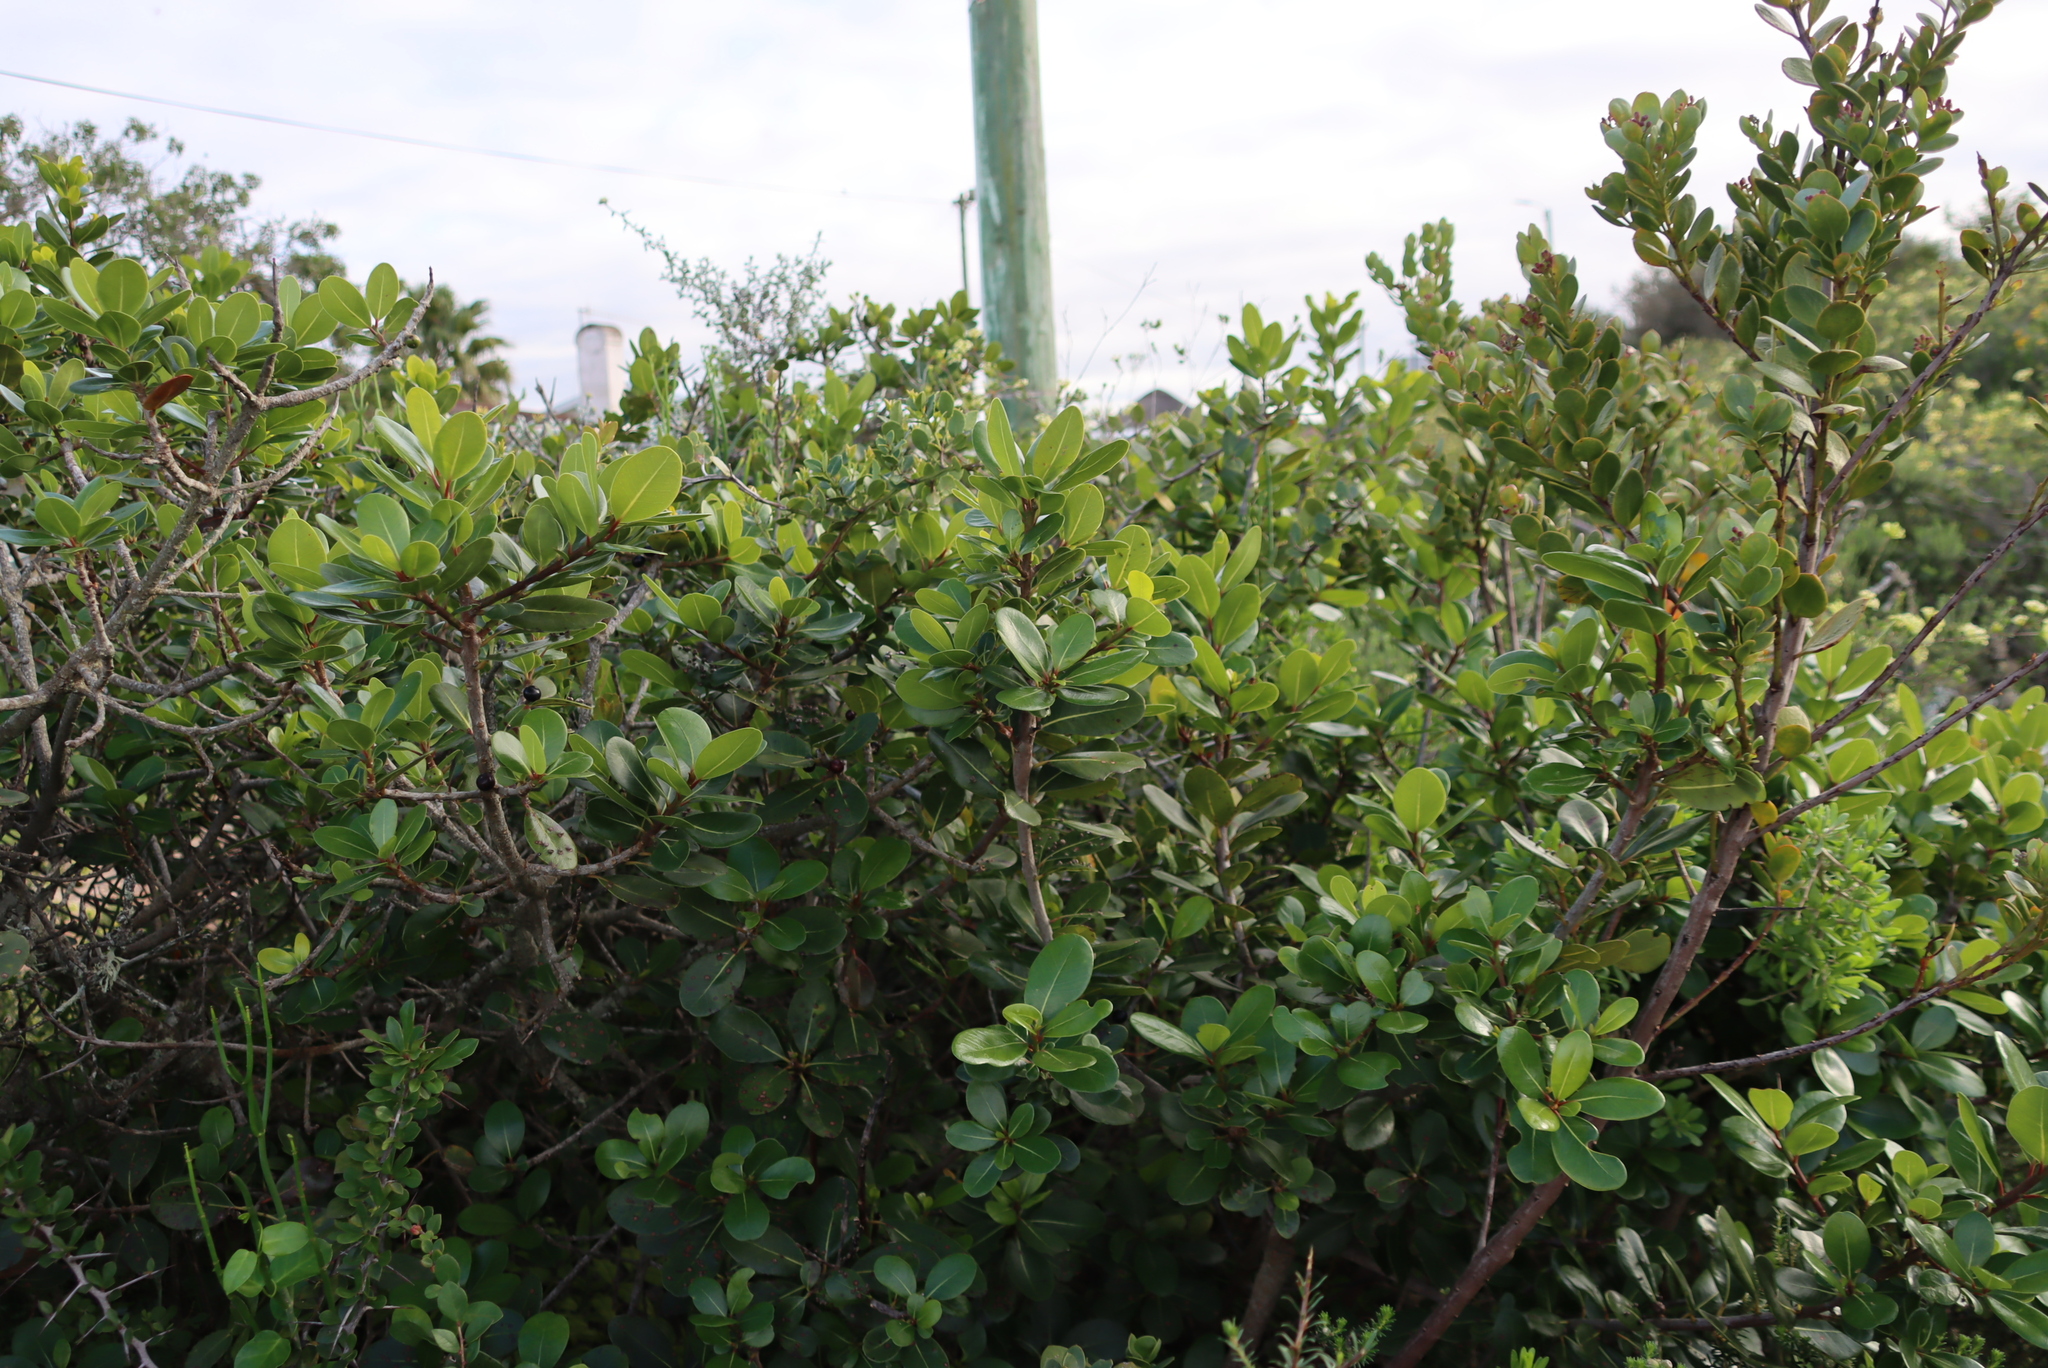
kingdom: Plantae
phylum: Tracheophyta
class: Magnoliopsida
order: Ericales
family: Sapotaceae
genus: Sideroxylon
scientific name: Sideroxylon inerme
